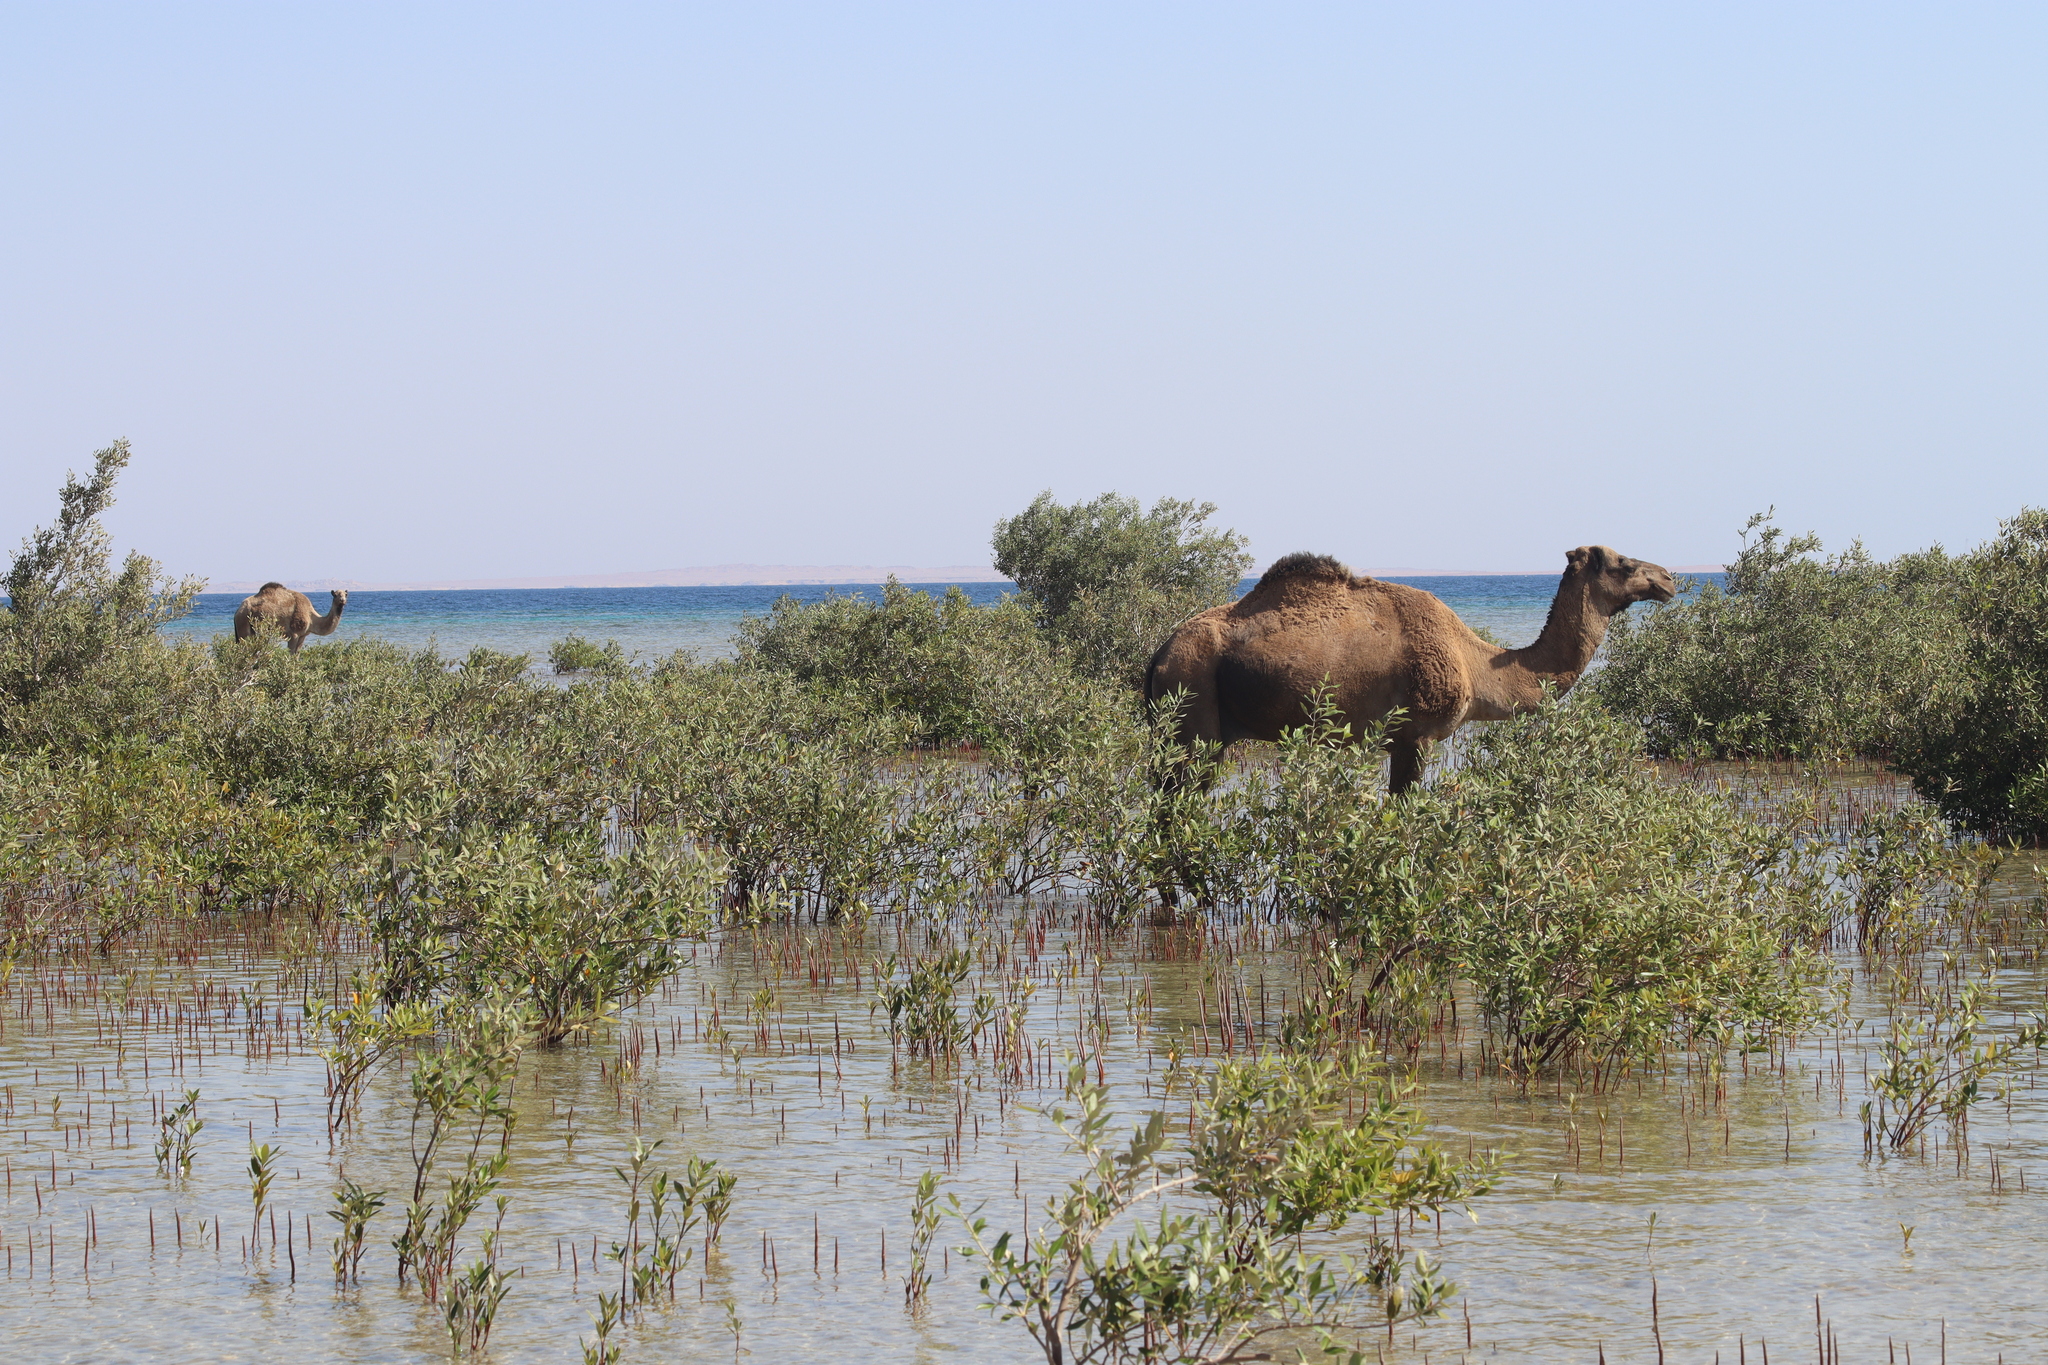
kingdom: Animalia
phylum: Chordata
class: Mammalia
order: Artiodactyla
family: Camelidae
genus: Camelus
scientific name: Camelus dromedarius
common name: One-humped camel
